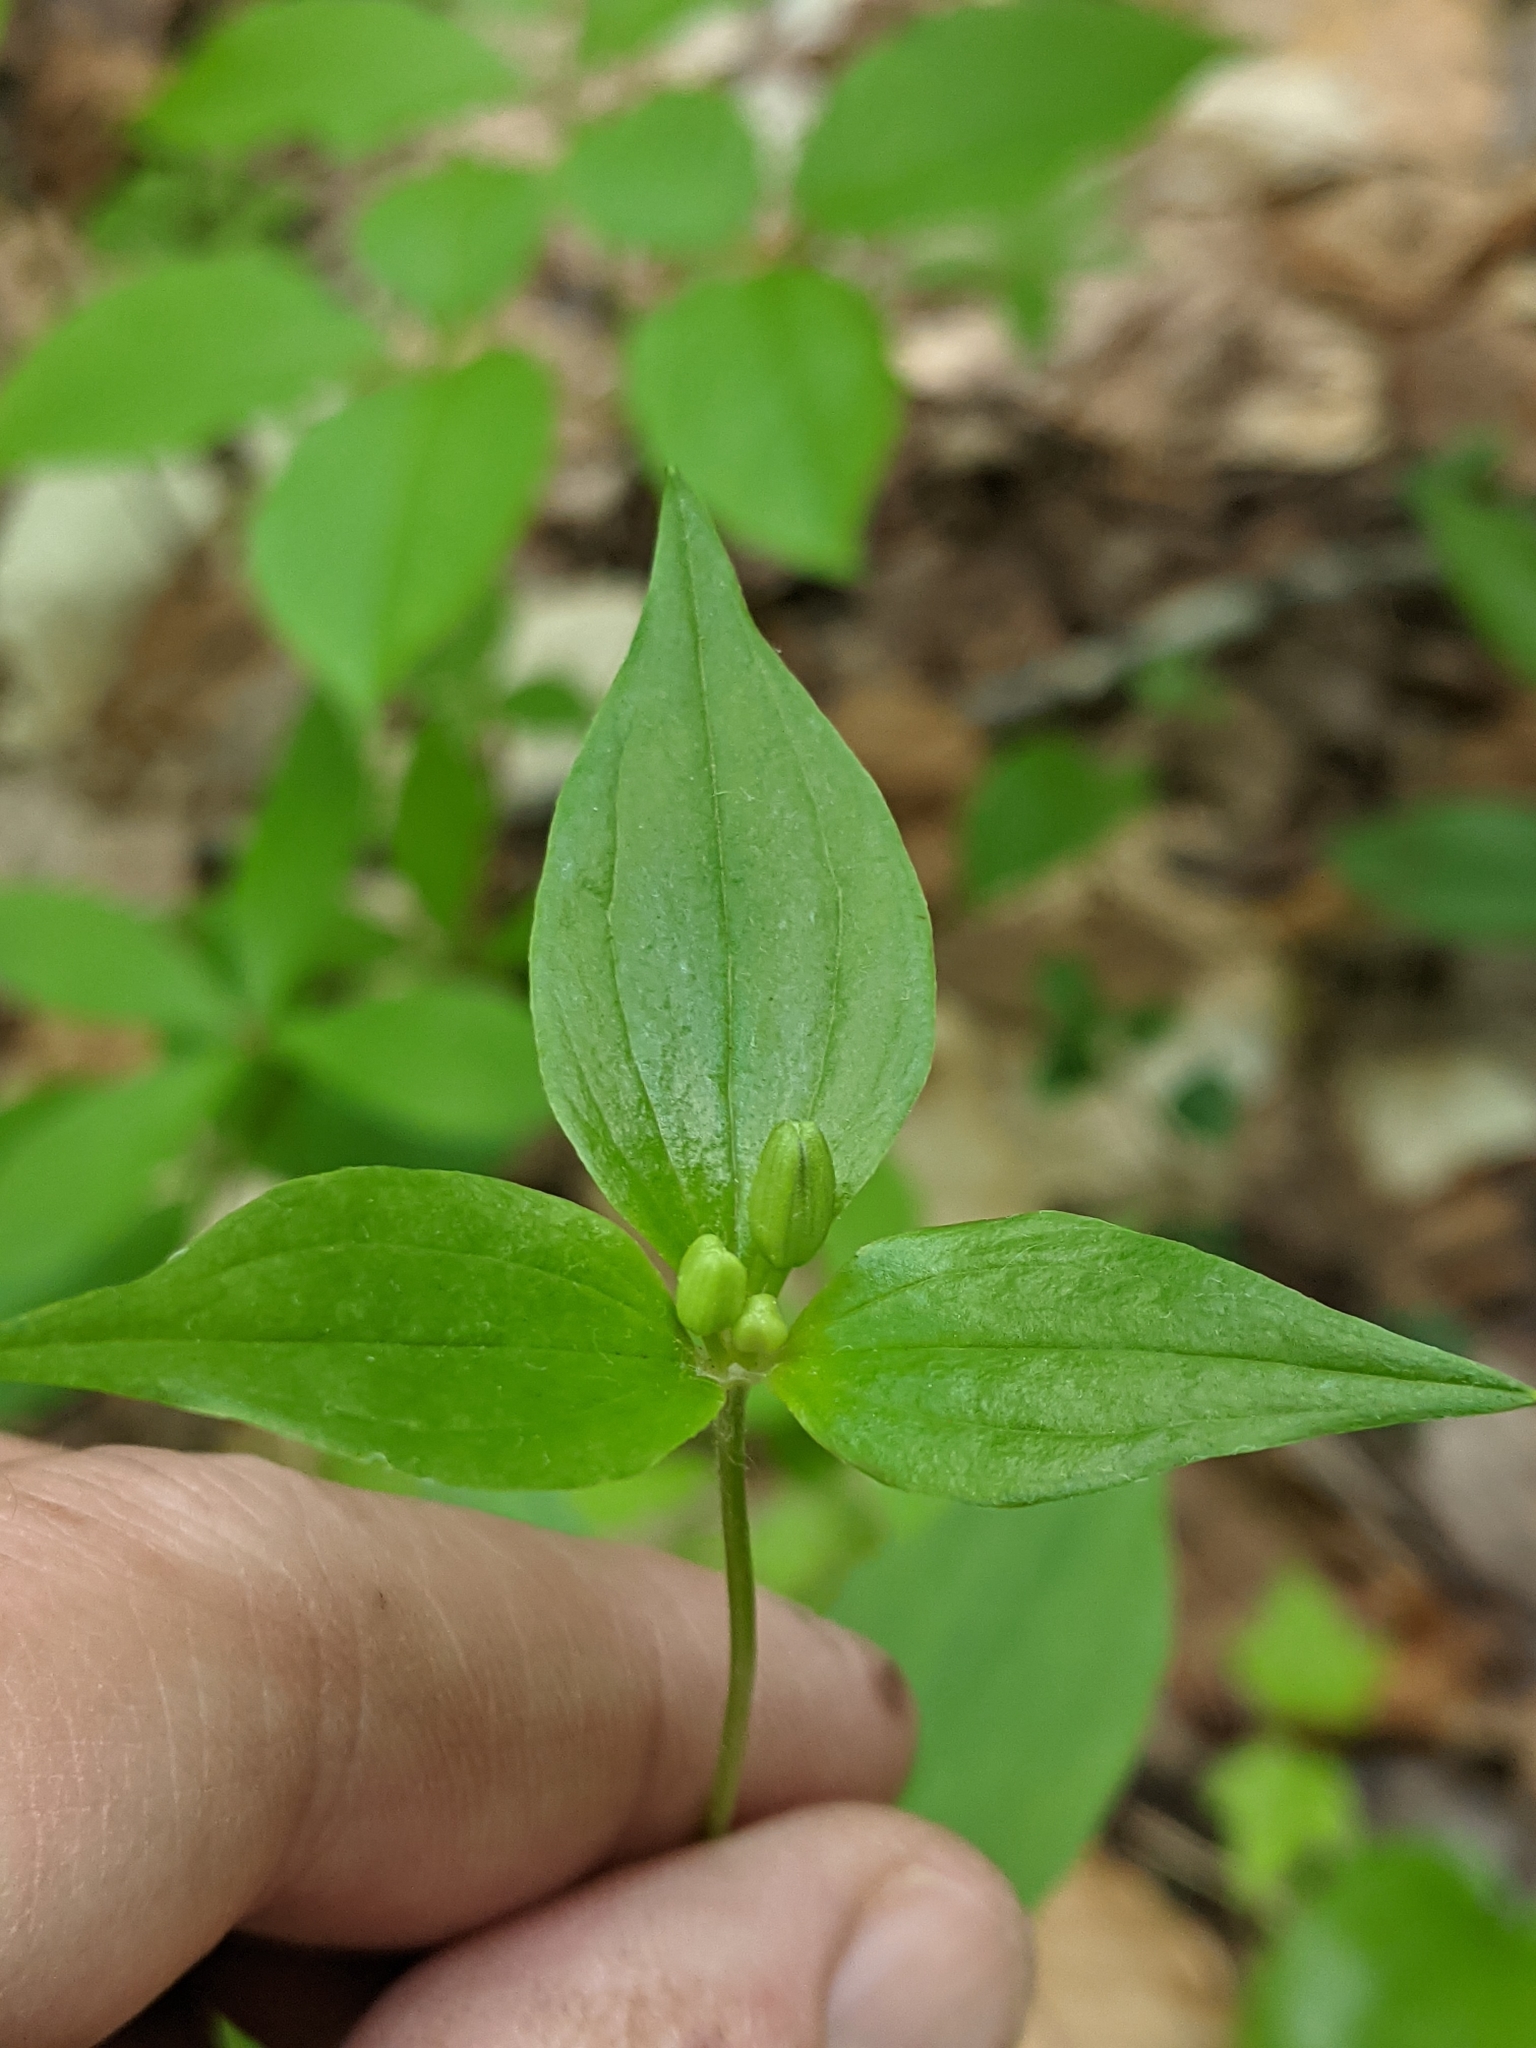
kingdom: Plantae
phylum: Tracheophyta
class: Liliopsida
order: Liliales
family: Liliaceae
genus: Medeola
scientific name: Medeola virginiana
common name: Indian cucumber-root
